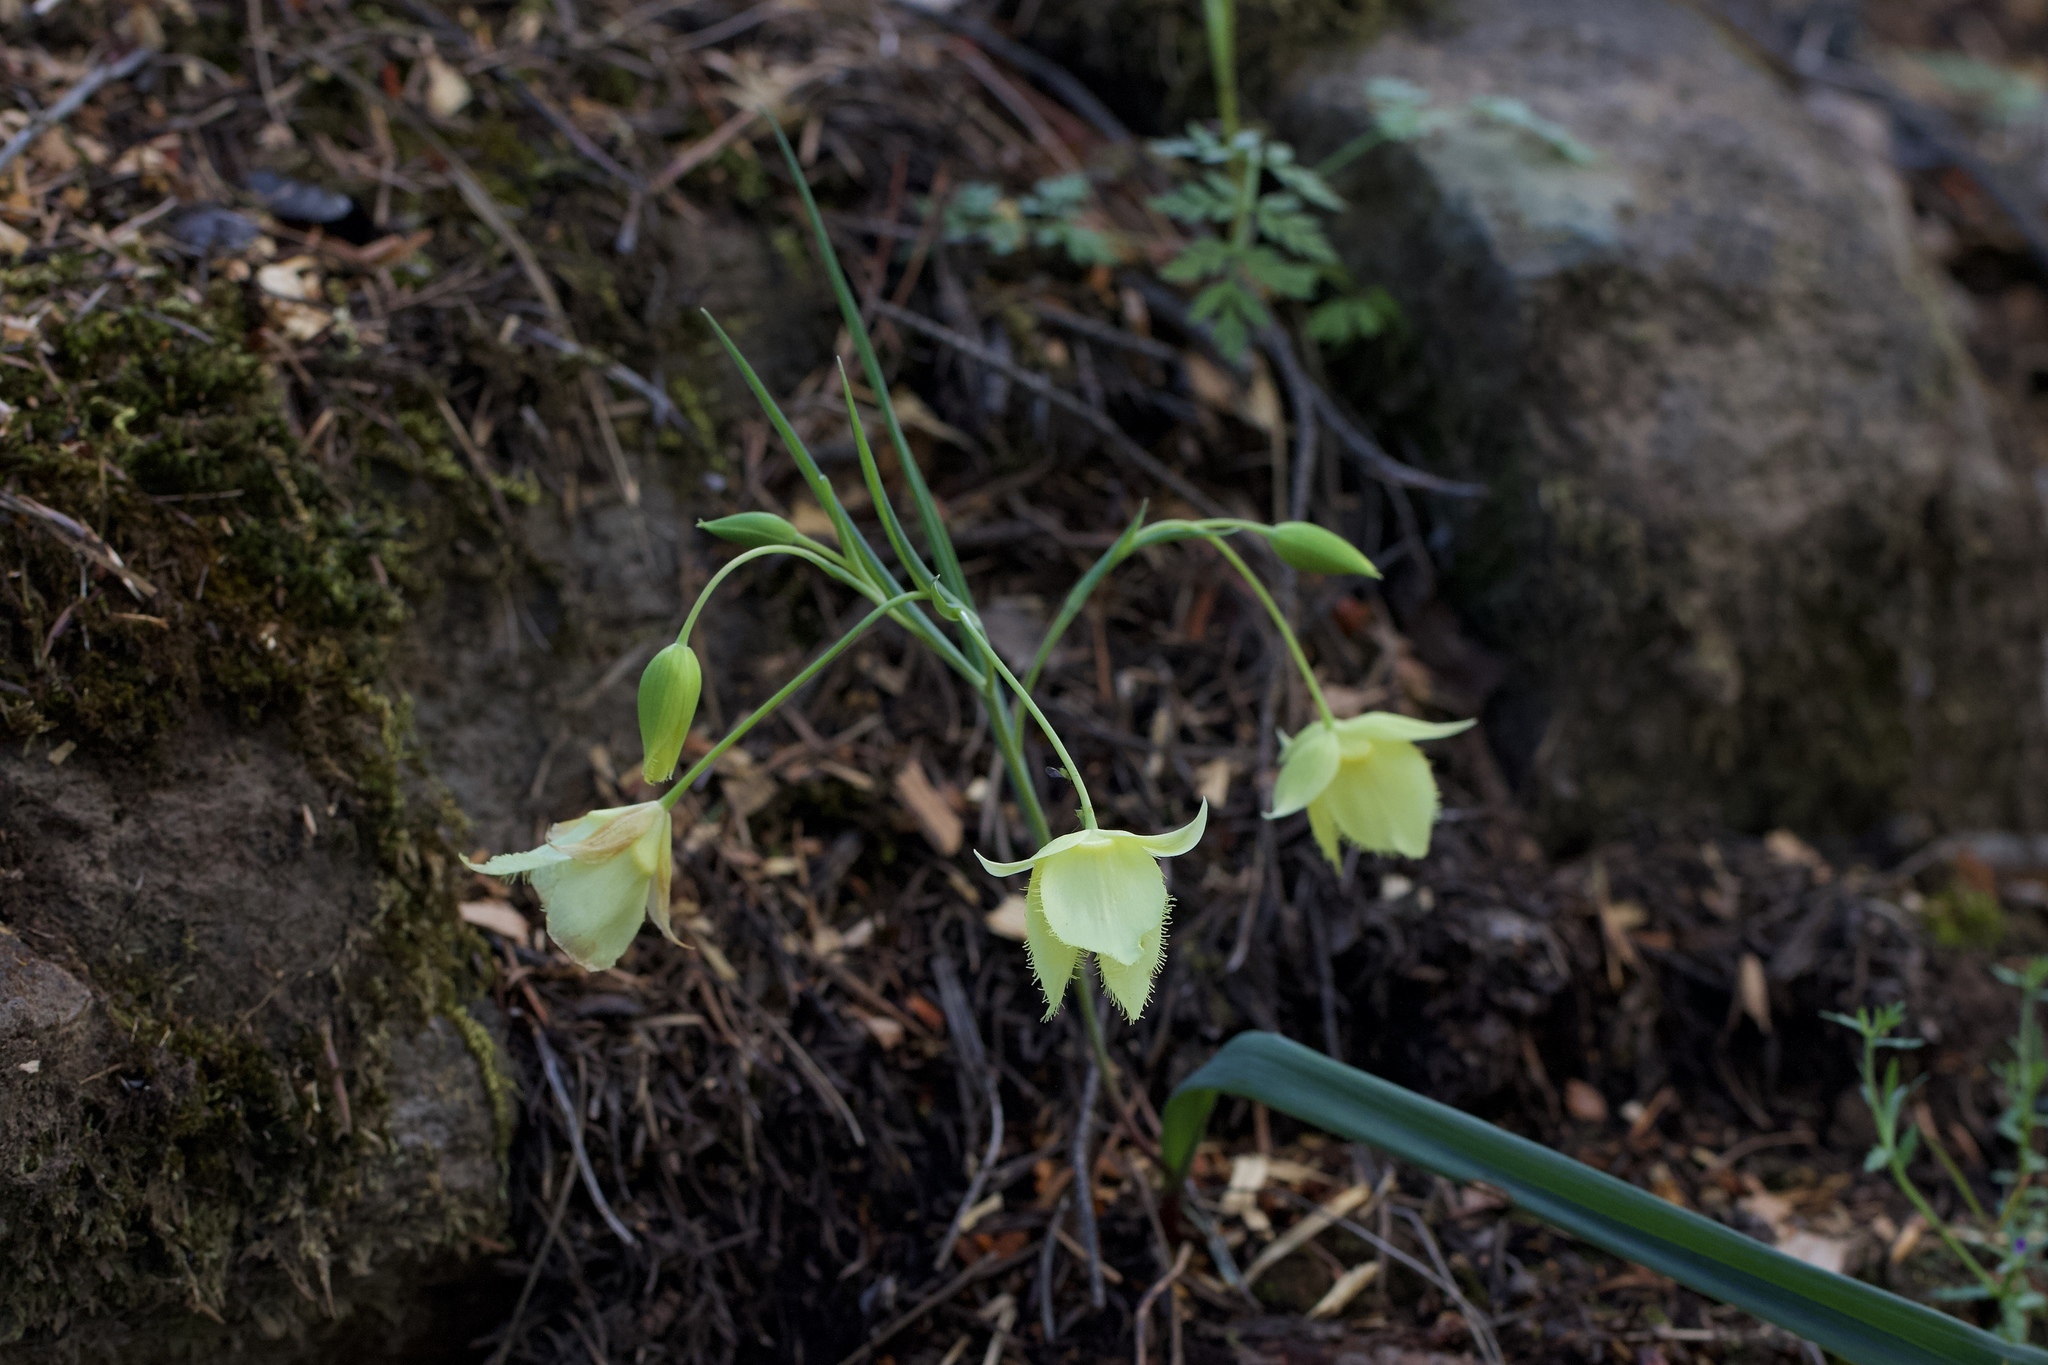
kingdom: Plantae
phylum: Tracheophyta
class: Liliopsida
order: Liliales
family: Liliaceae
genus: Calochortus
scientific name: Calochortus
